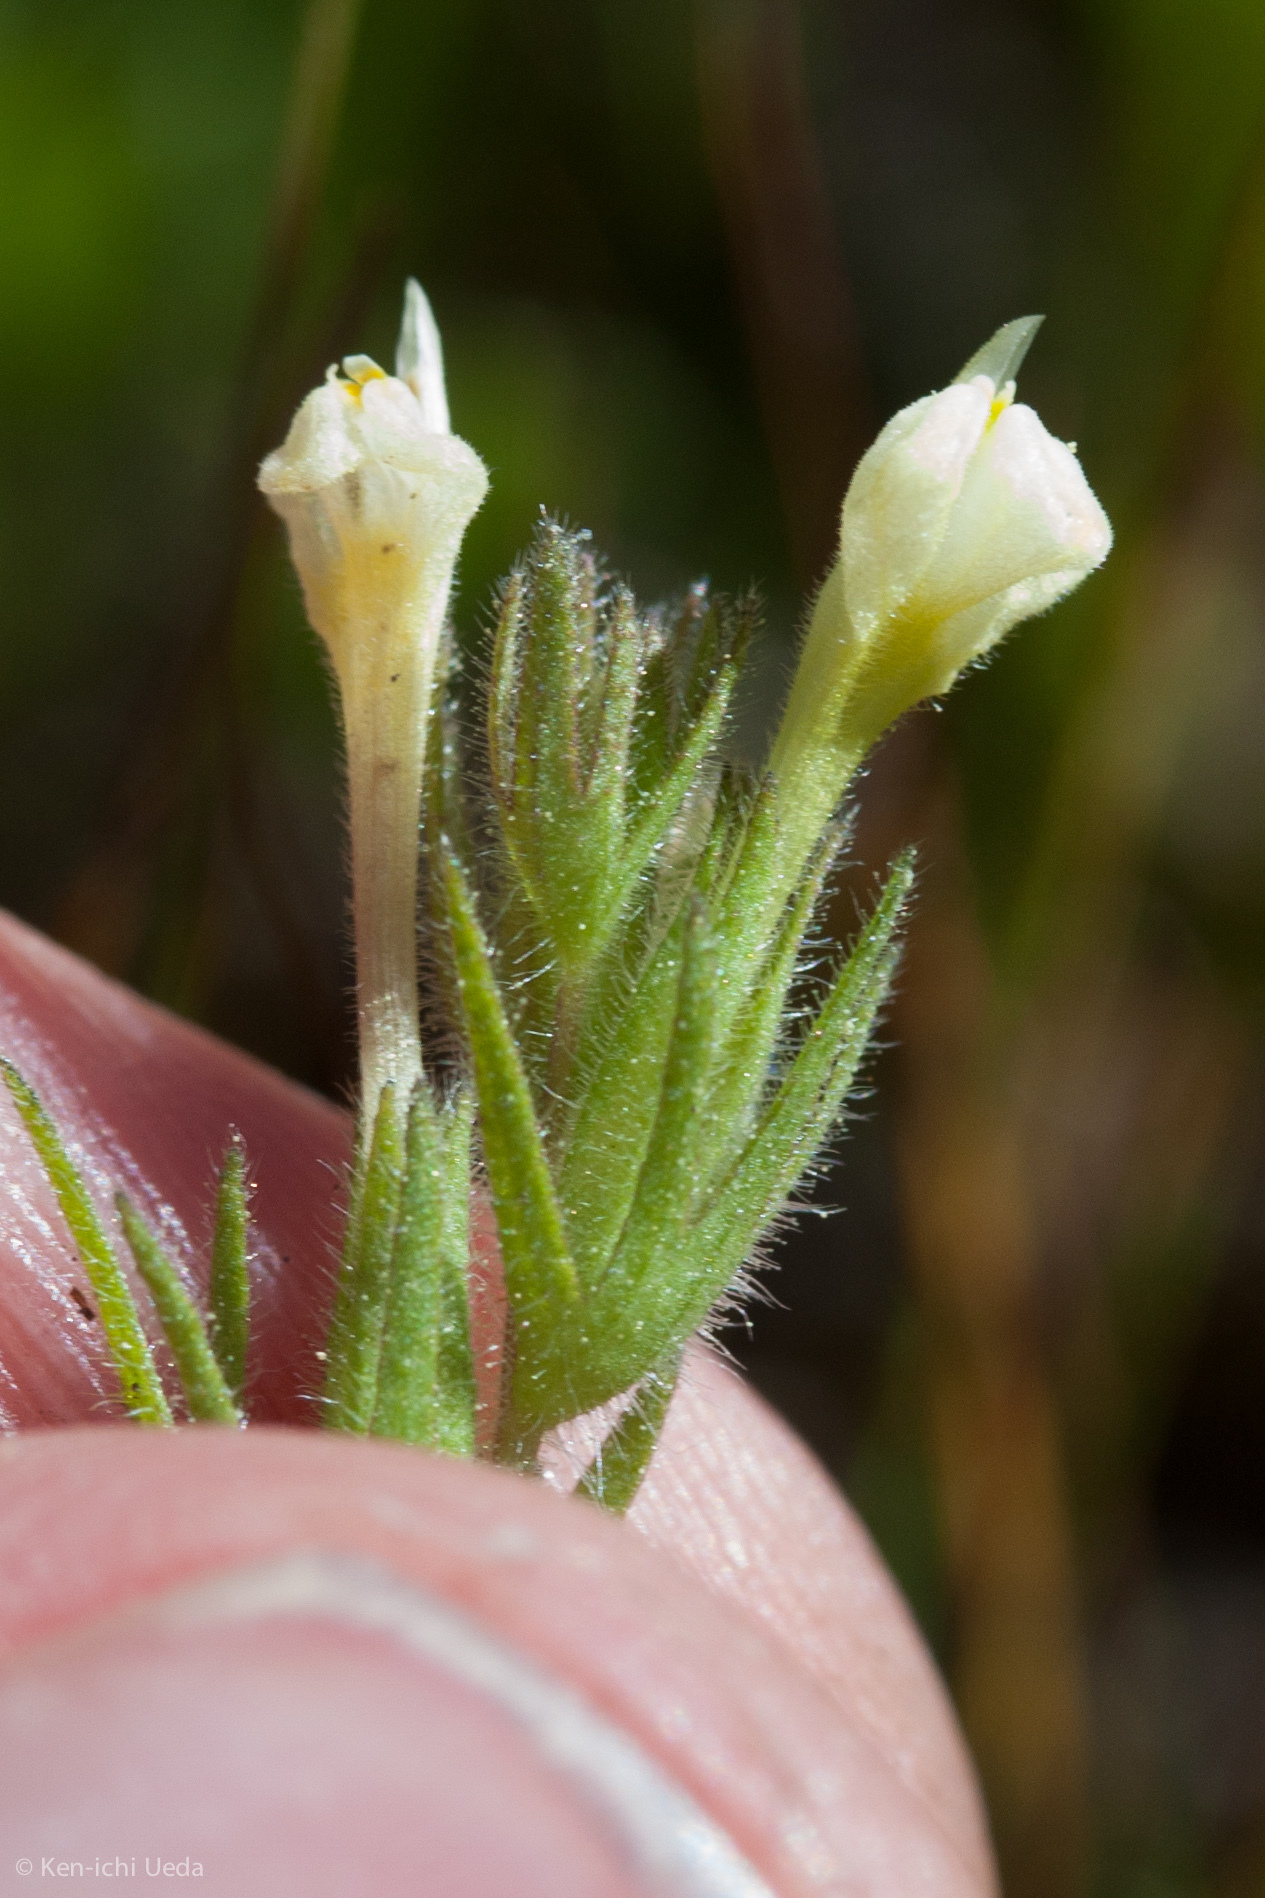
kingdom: Plantae
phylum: Tracheophyta
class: Magnoliopsida
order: Lamiales
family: Orobanchaceae
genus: Castilleja
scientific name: Castilleja tenuis
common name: Hairy indian paintbrush
